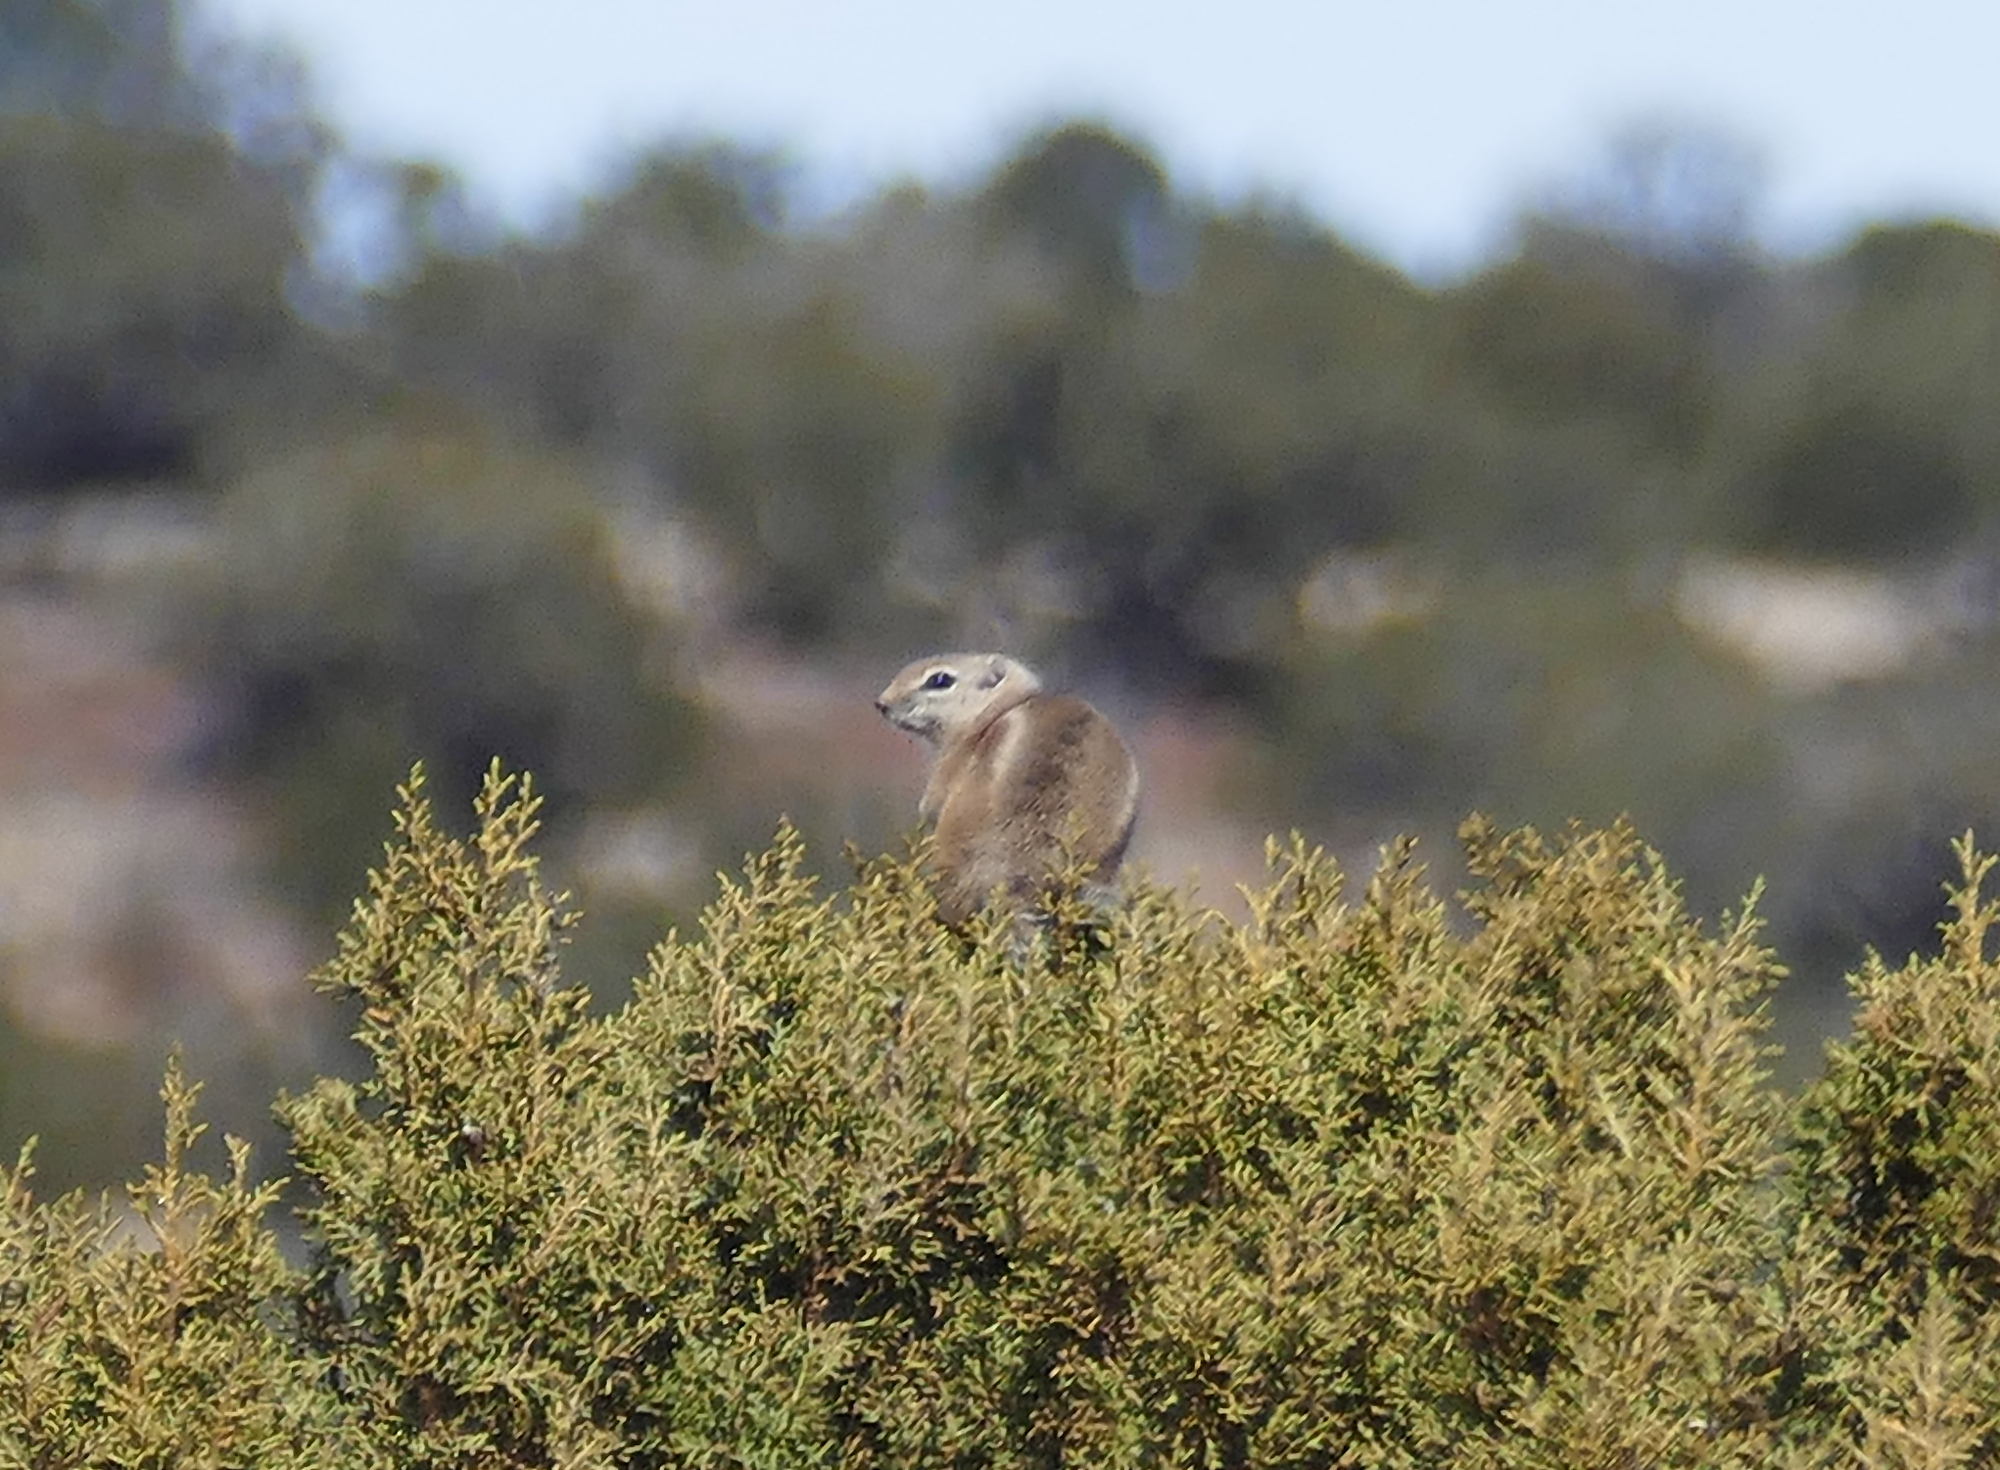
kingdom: Animalia
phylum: Chordata
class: Mammalia
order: Rodentia
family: Sciuridae
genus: Ammospermophilus
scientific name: Ammospermophilus leucurus
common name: White-tailed antelope squirrel
